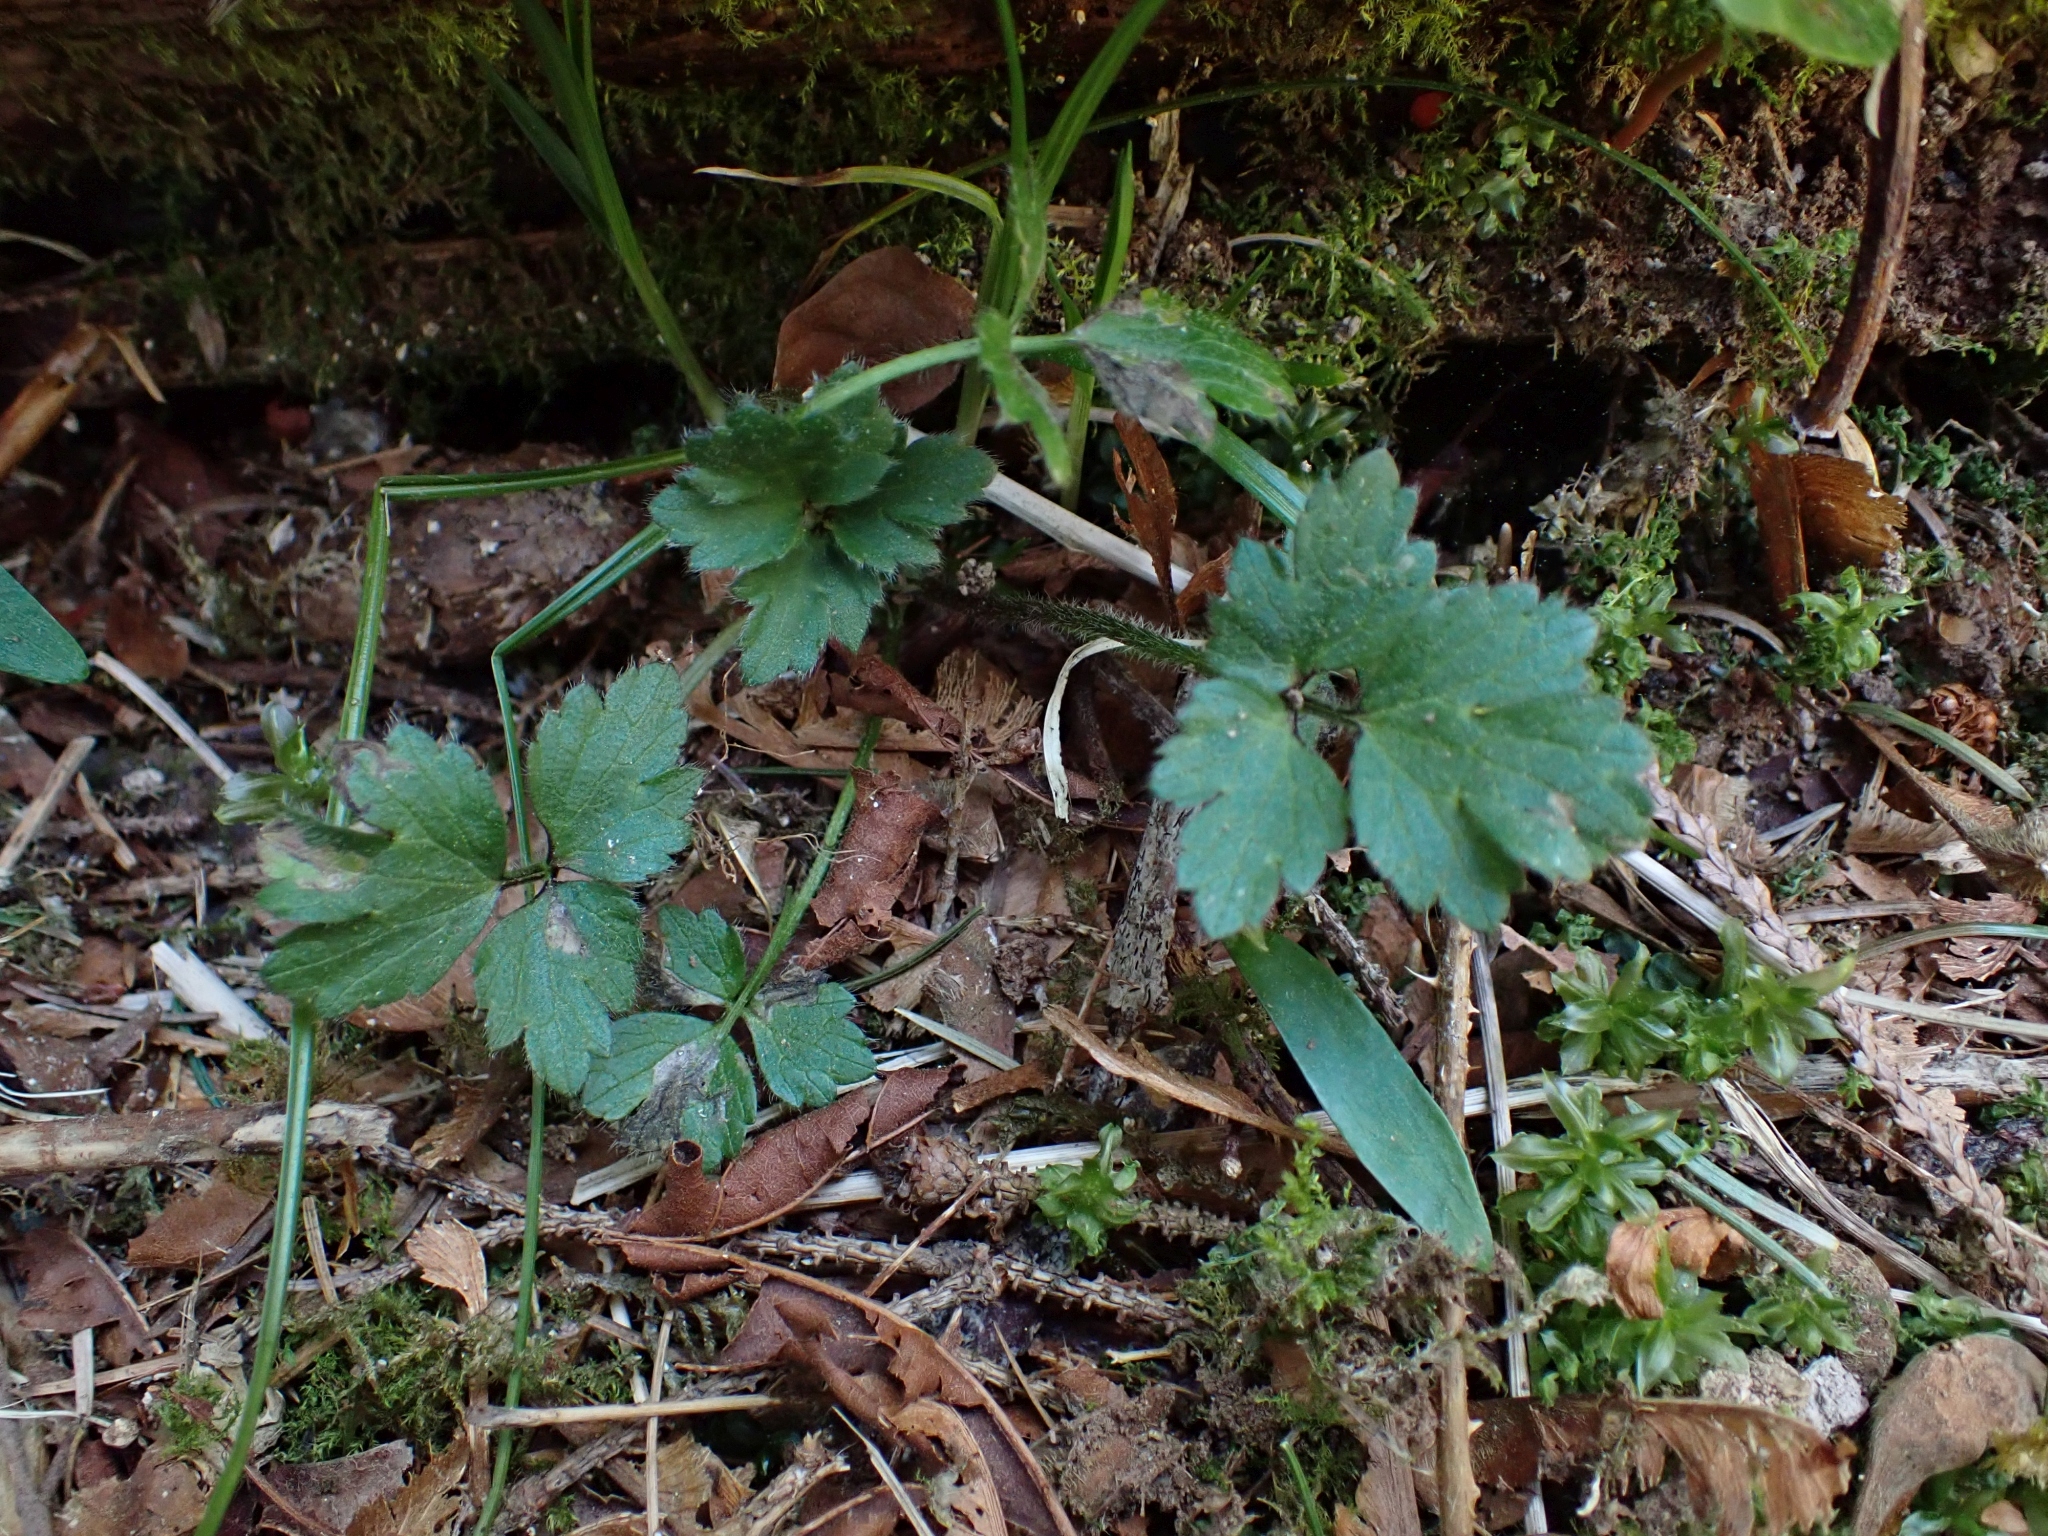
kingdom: Plantae
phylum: Tracheophyta
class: Magnoliopsida
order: Ranunculales
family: Ranunculaceae
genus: Ranunculus
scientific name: Ranunculus repens
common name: Creeping buttercup
